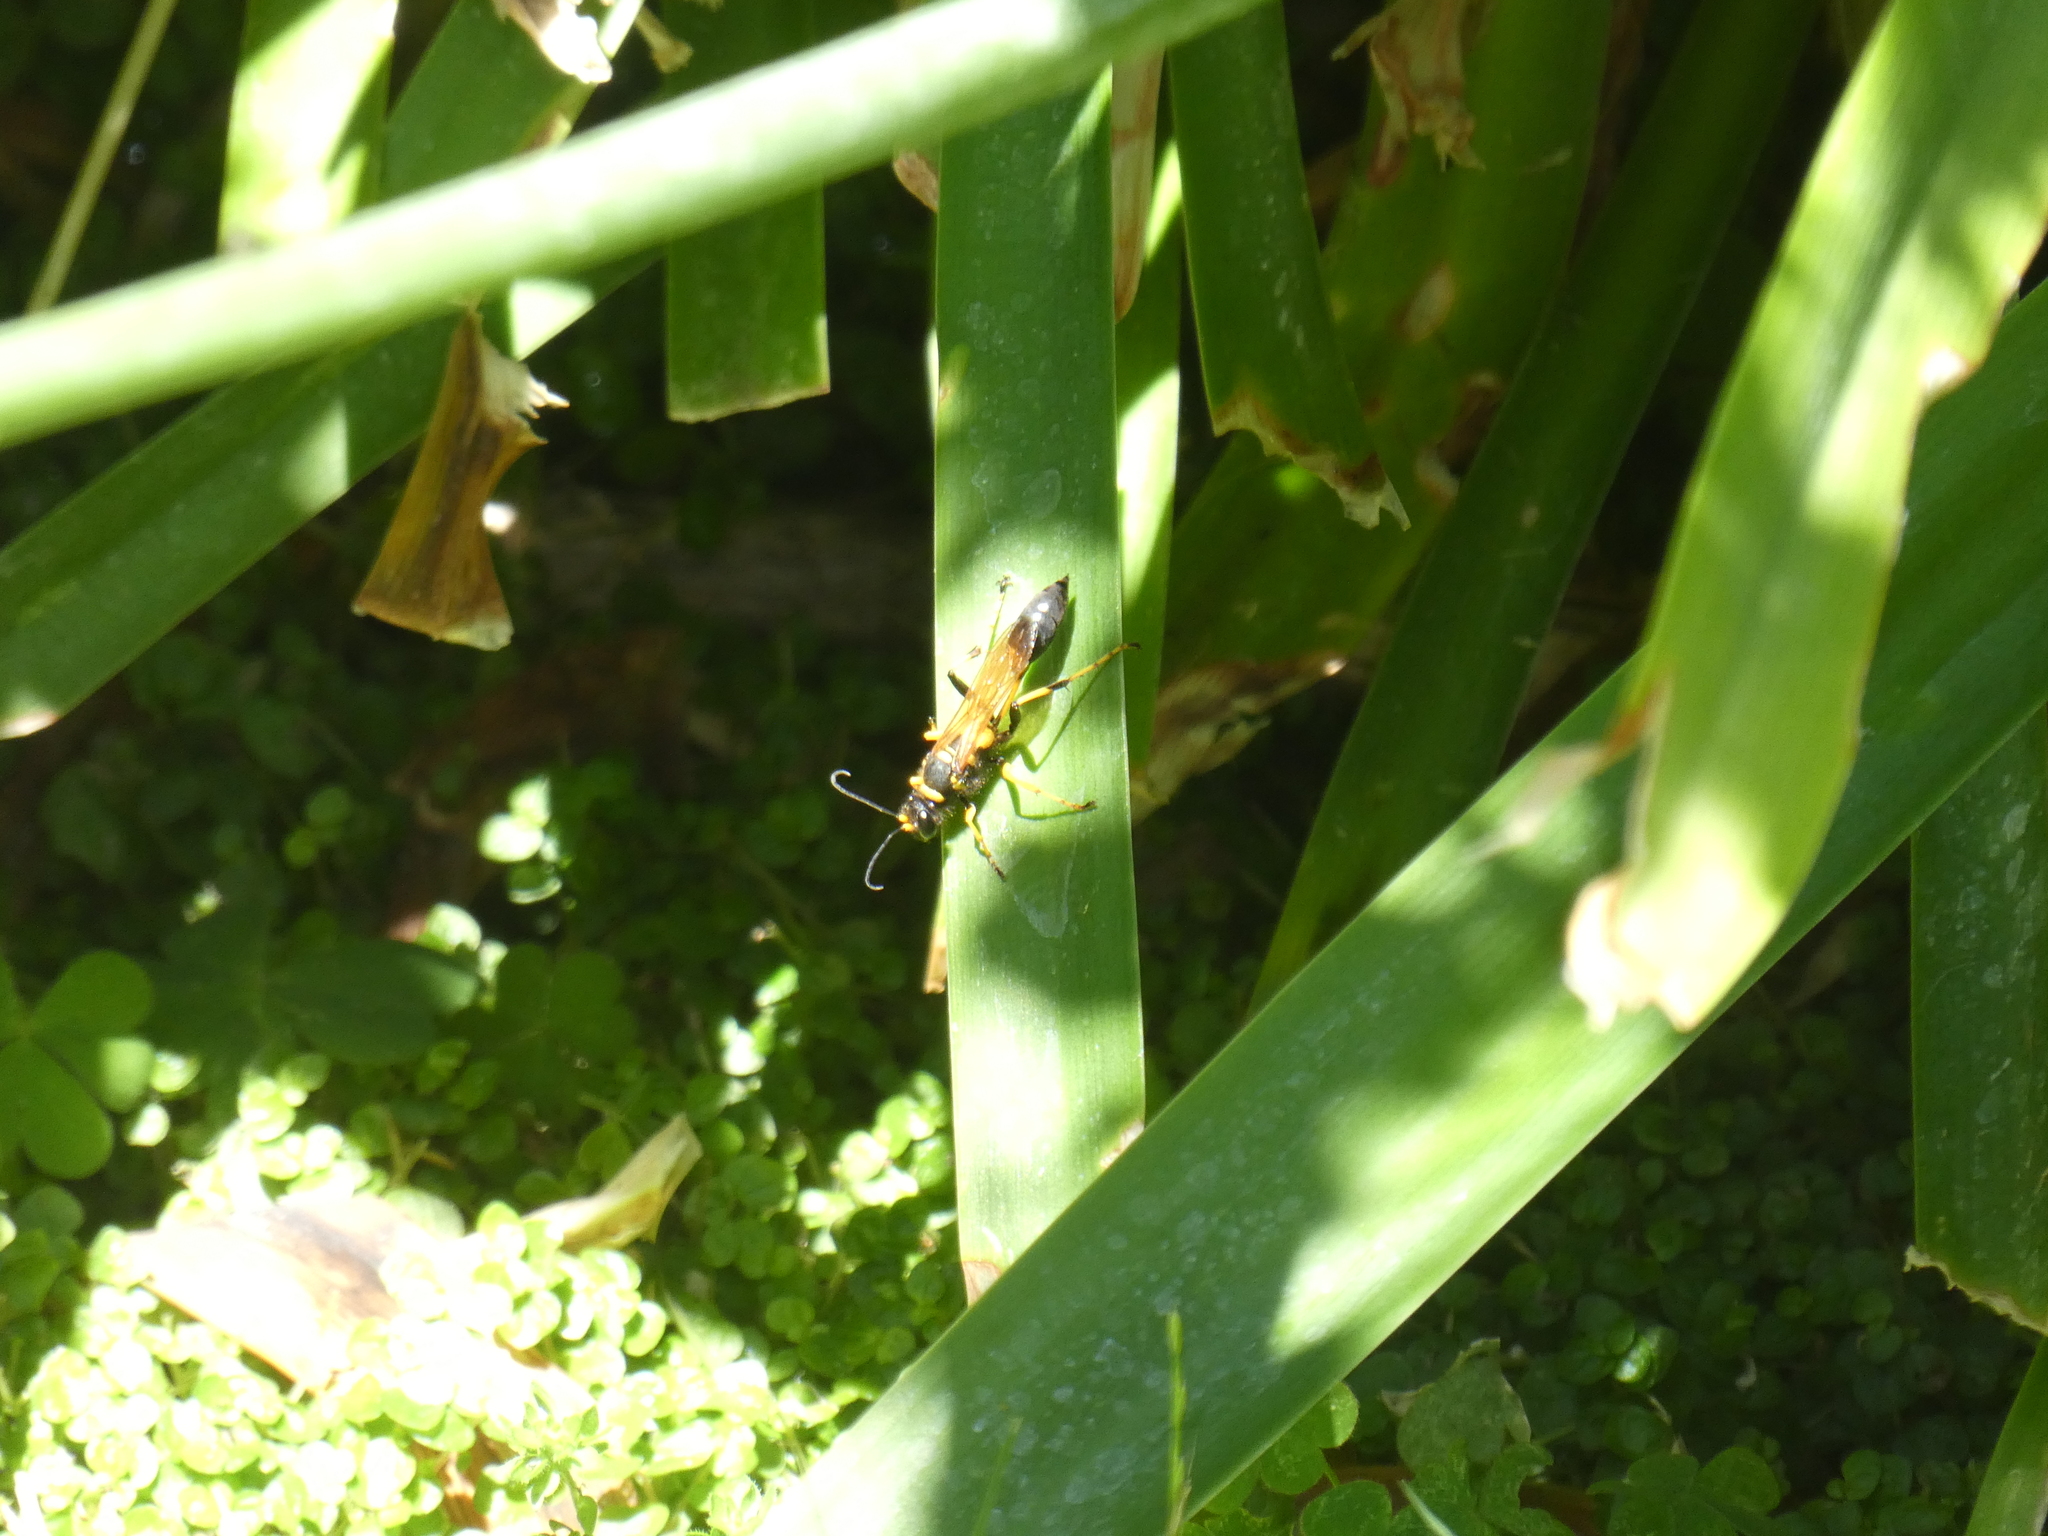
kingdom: Animalia
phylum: Arthropoda
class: Insecta
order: Hymenoptera
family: Sphecidae
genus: Sceliphron
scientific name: Sceliphron caementarium
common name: Mud dauber
